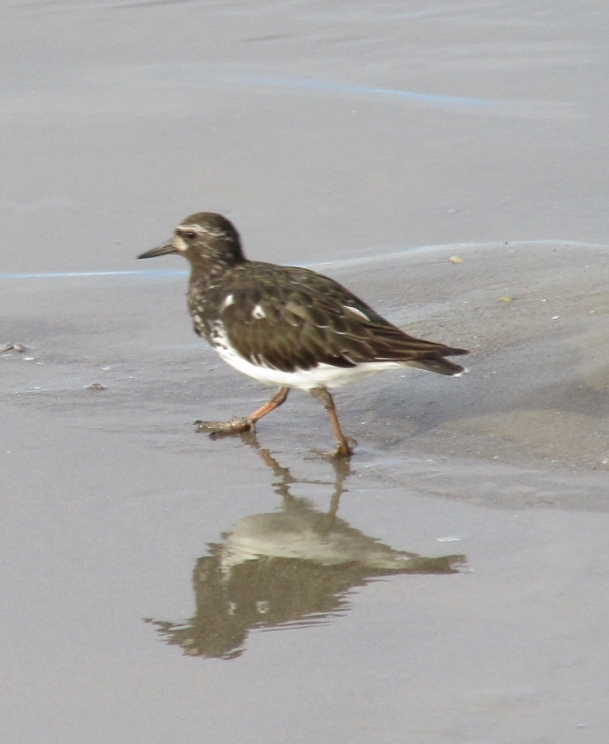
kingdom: Animalia
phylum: Chordata
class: Aves
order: Charadriiformes
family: Scolopacidae
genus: Arenaria
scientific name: Arenaria melanocephala
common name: Black turnstone
